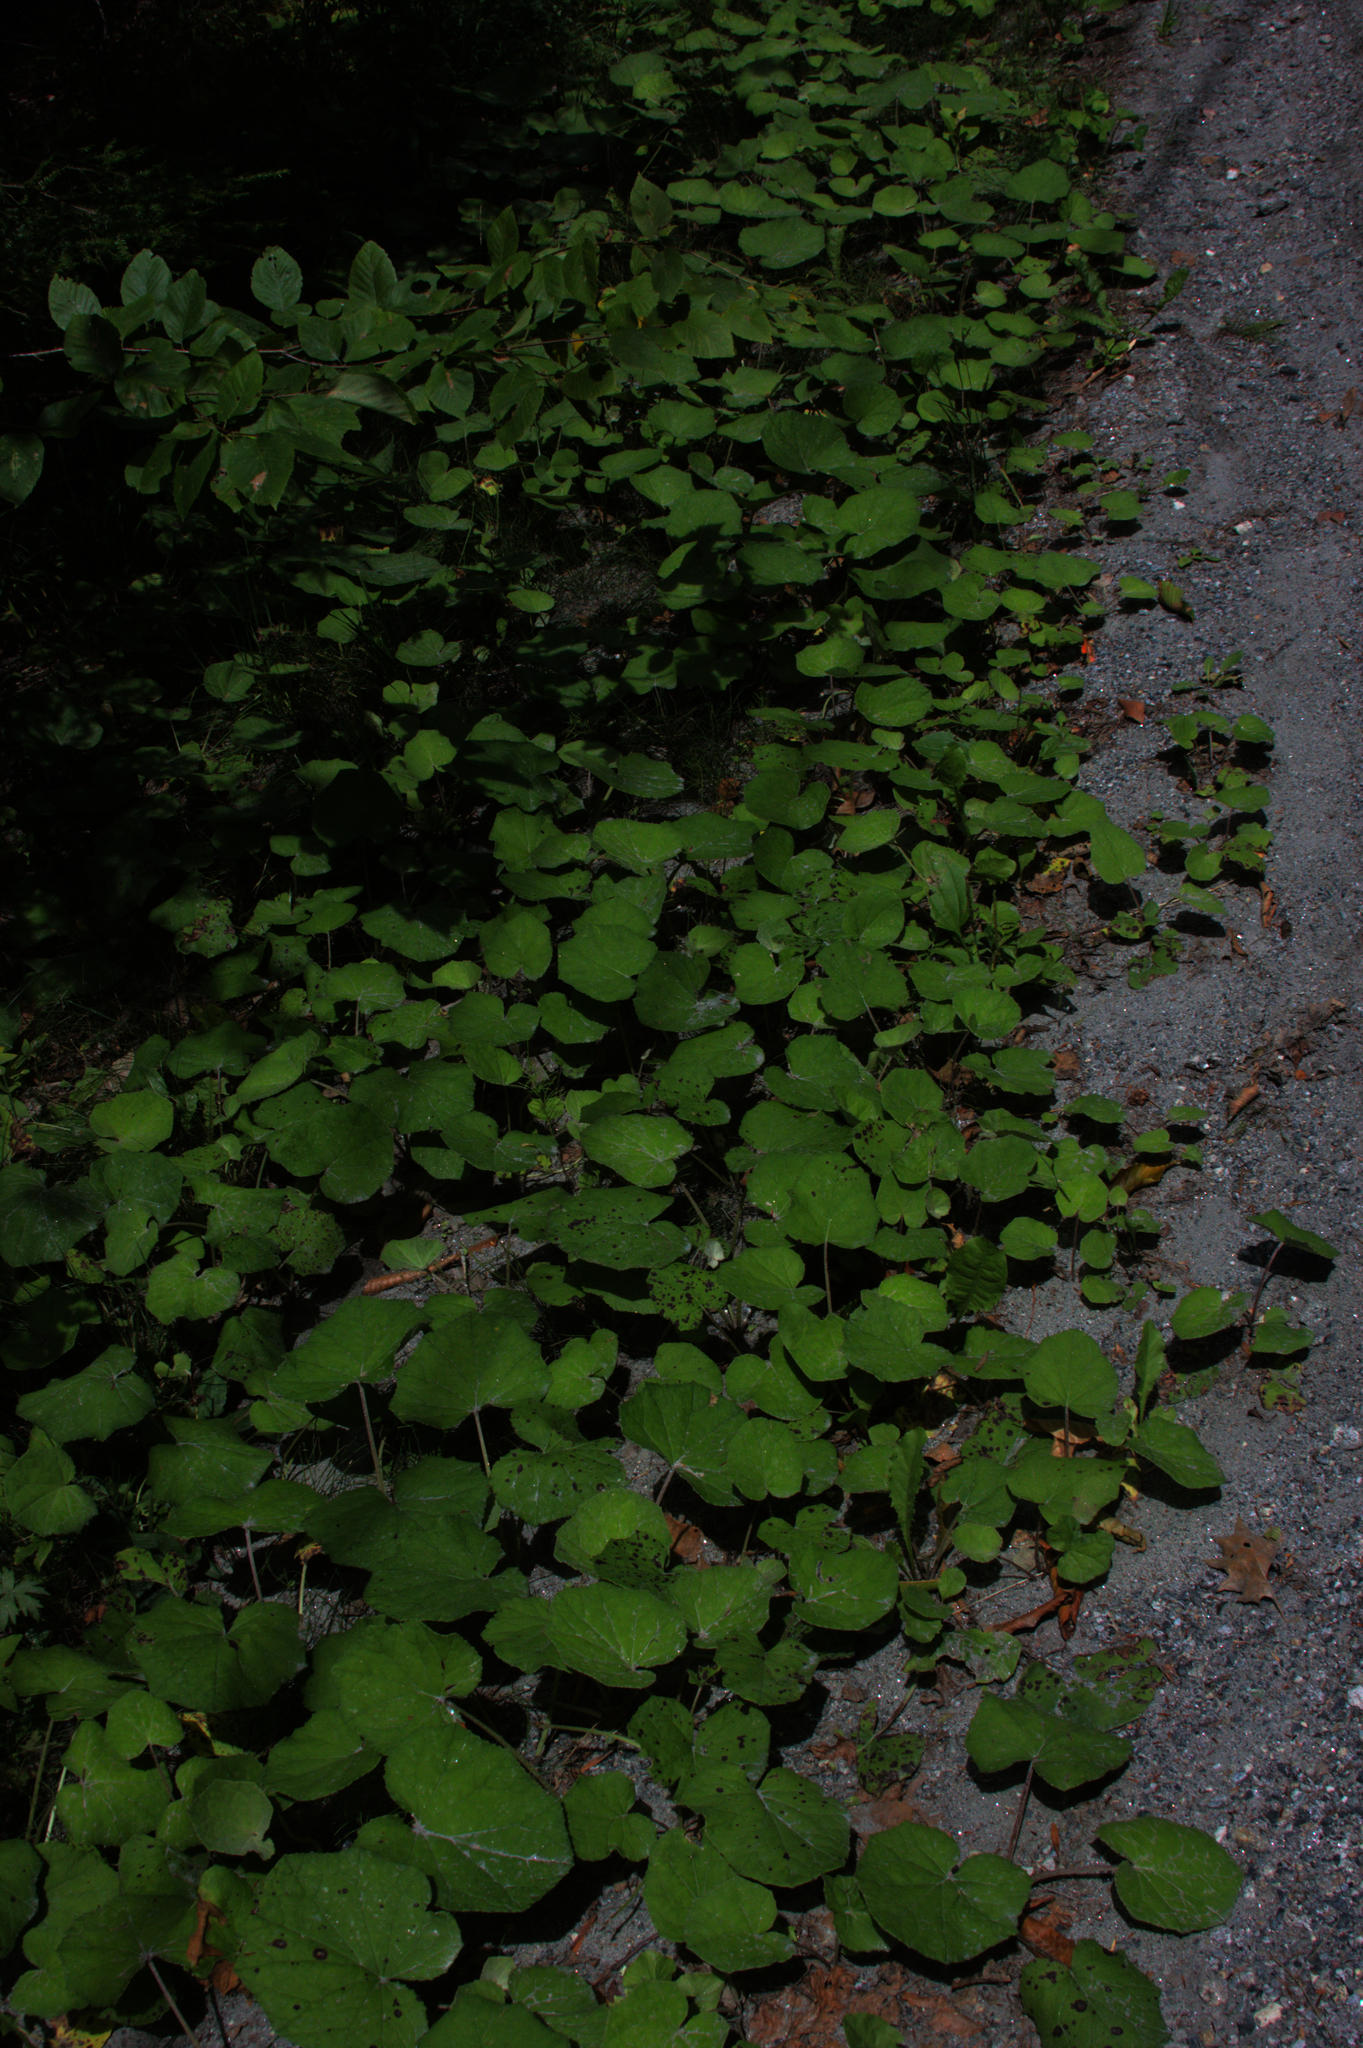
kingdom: Plantae
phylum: Tracheophyta
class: Magnoliopsida
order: Asterales
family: Asteraceae
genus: Tussilago
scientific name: Tussilago farfara
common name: Coltsfoot
